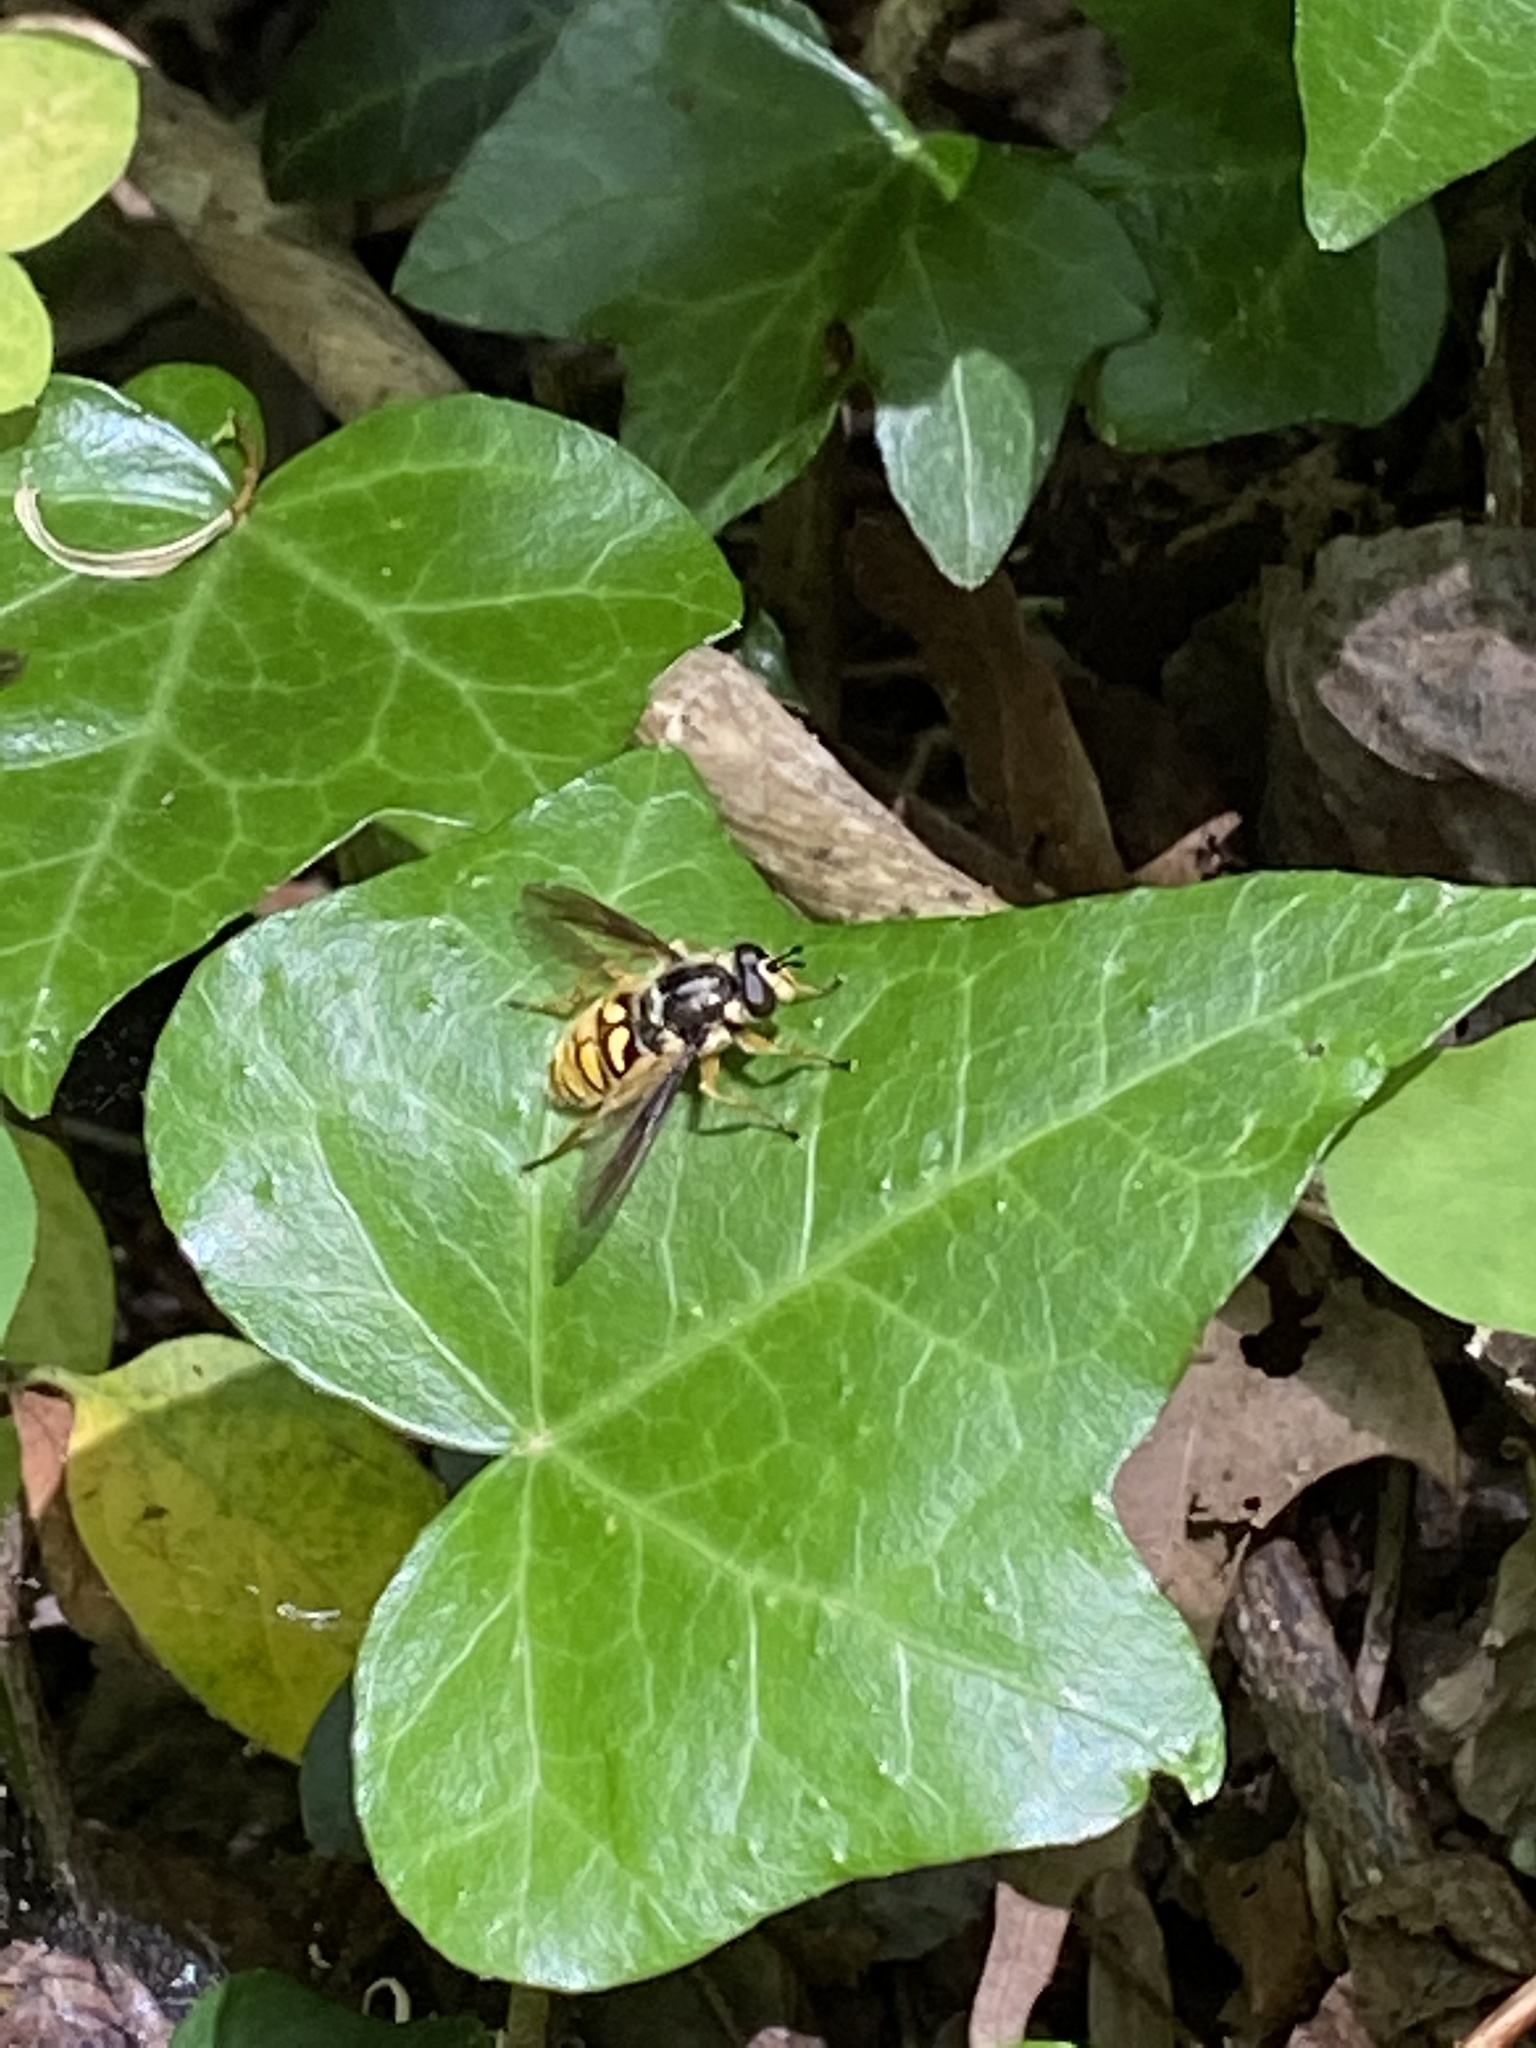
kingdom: Animalia
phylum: Arthropoda
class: Insecta
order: Diptera
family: Syrphidae
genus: Somula
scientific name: Somula decora
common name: Spotted wood fly
